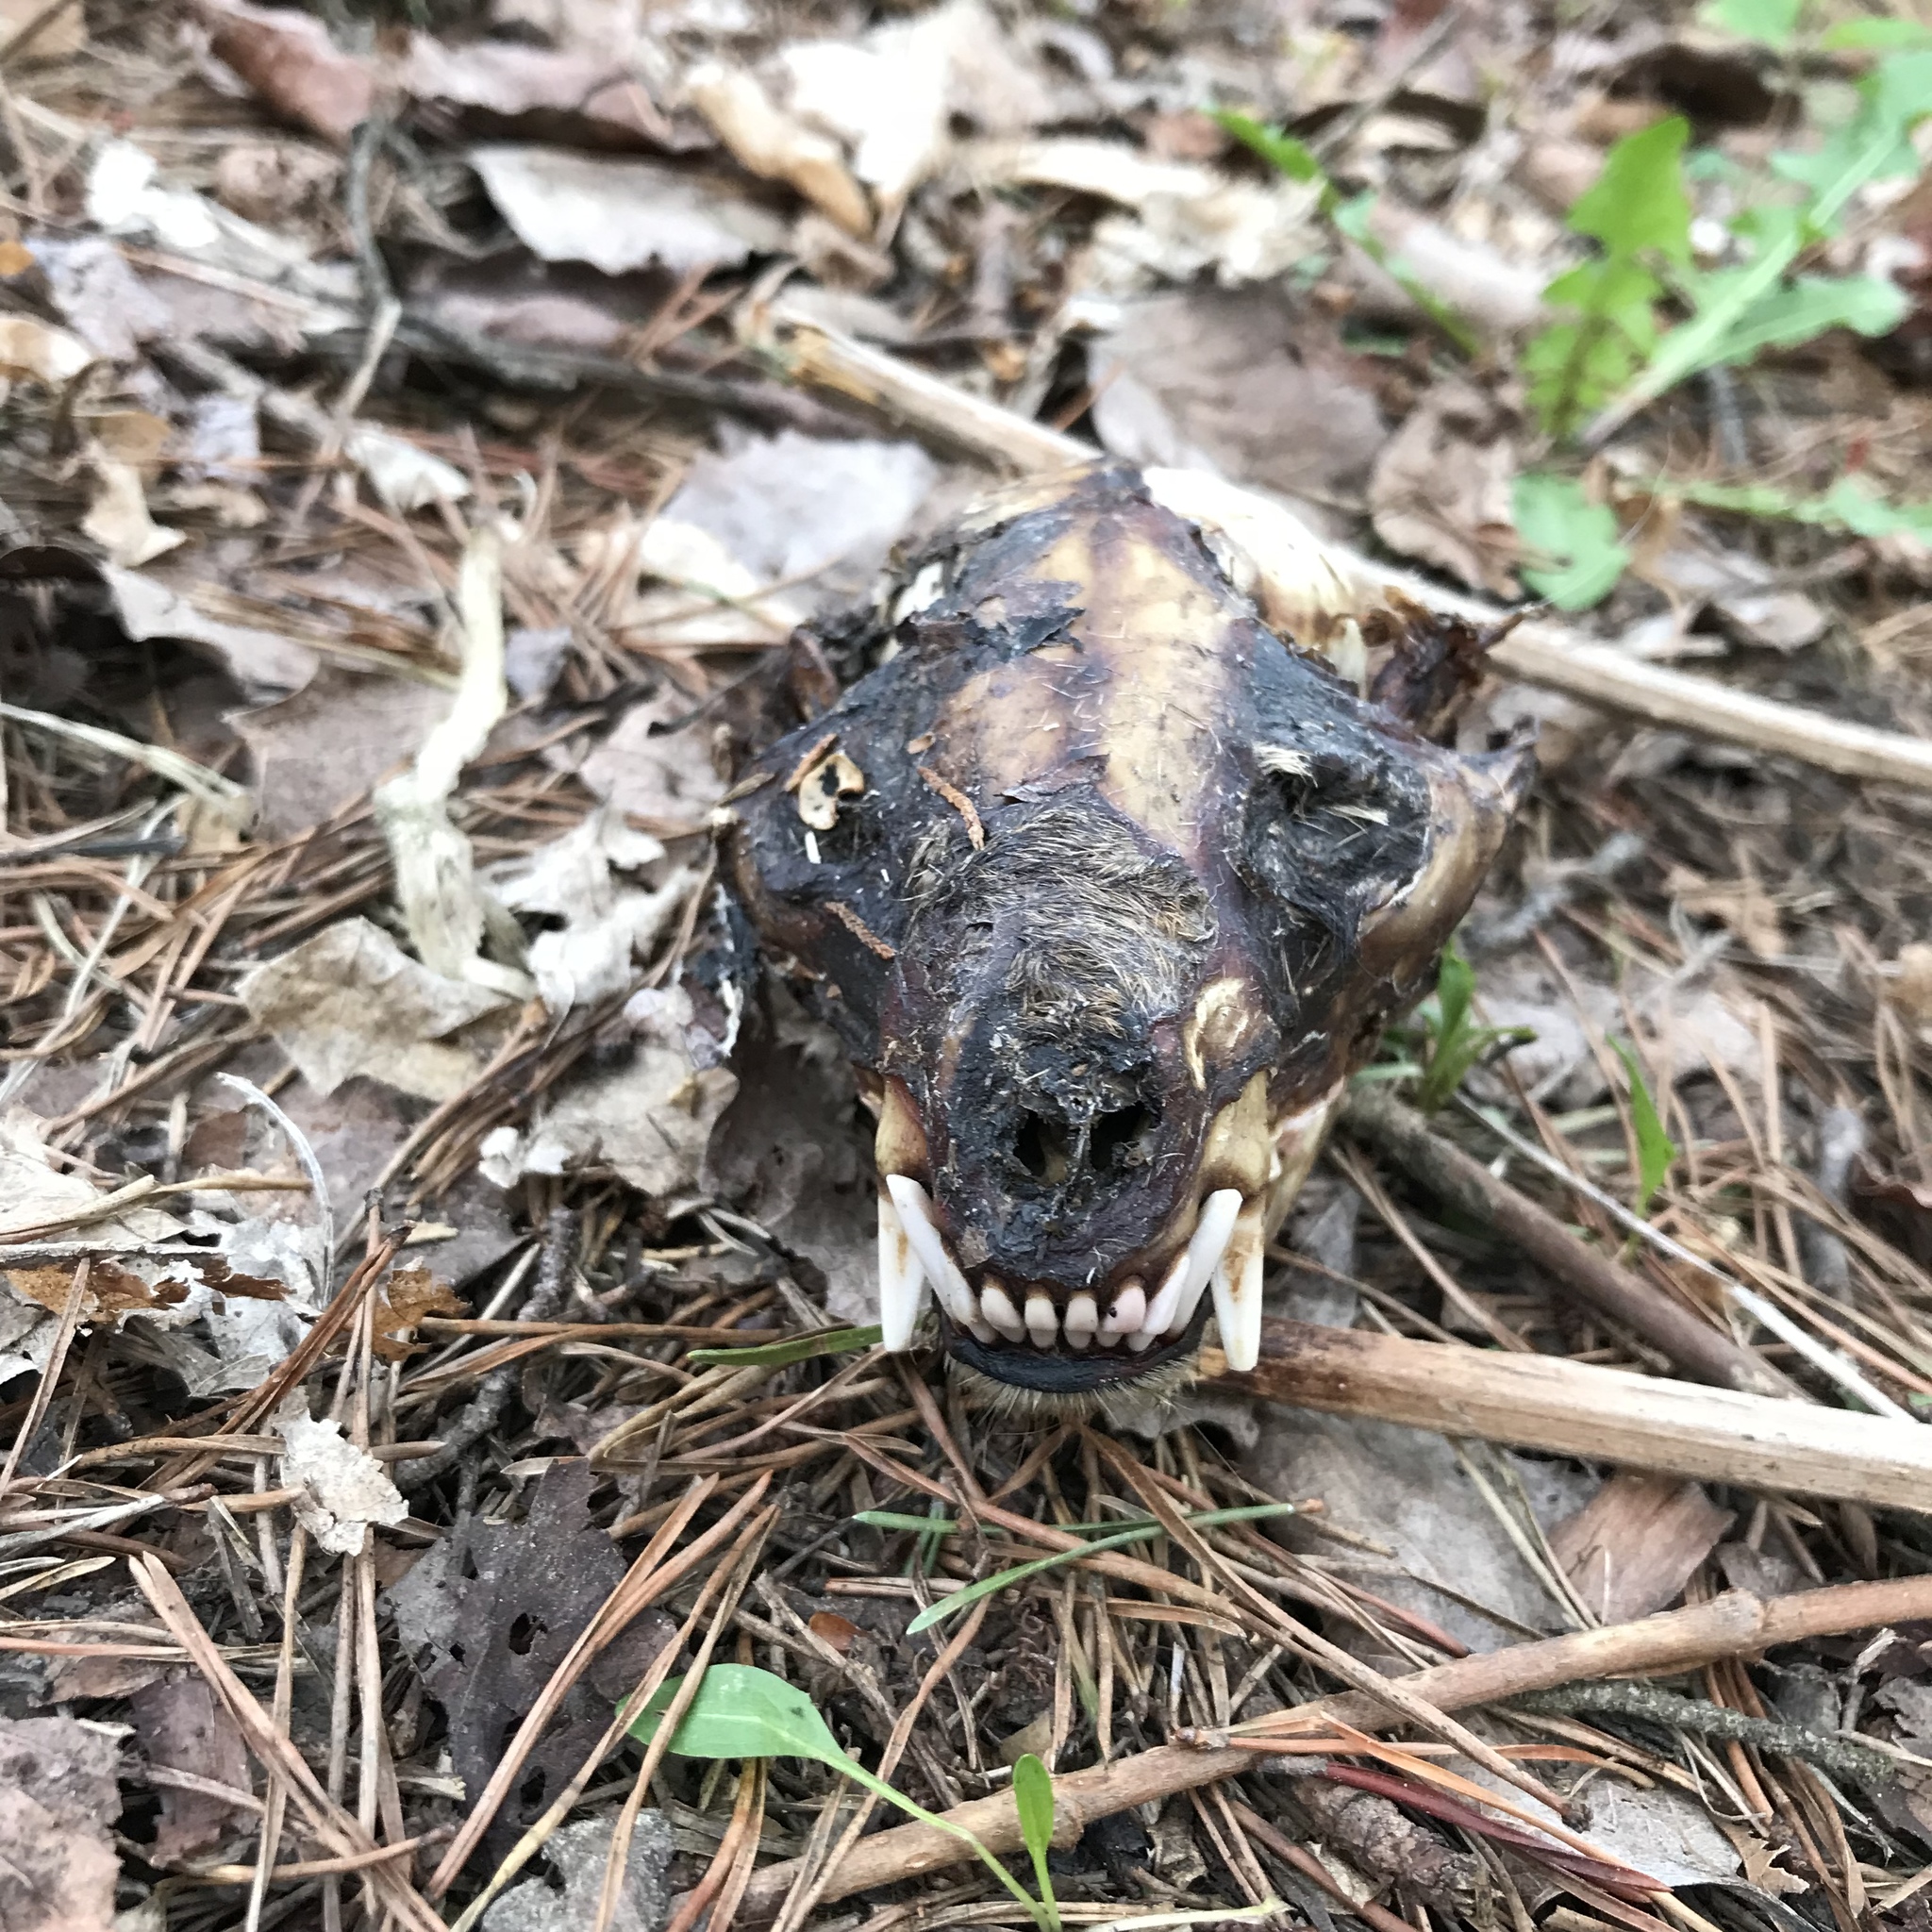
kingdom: Animalia
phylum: Chordata
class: Mammalia
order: Carnivora
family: Procyonidae
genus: Procyon
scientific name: Procyon lotor
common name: Raccoon
